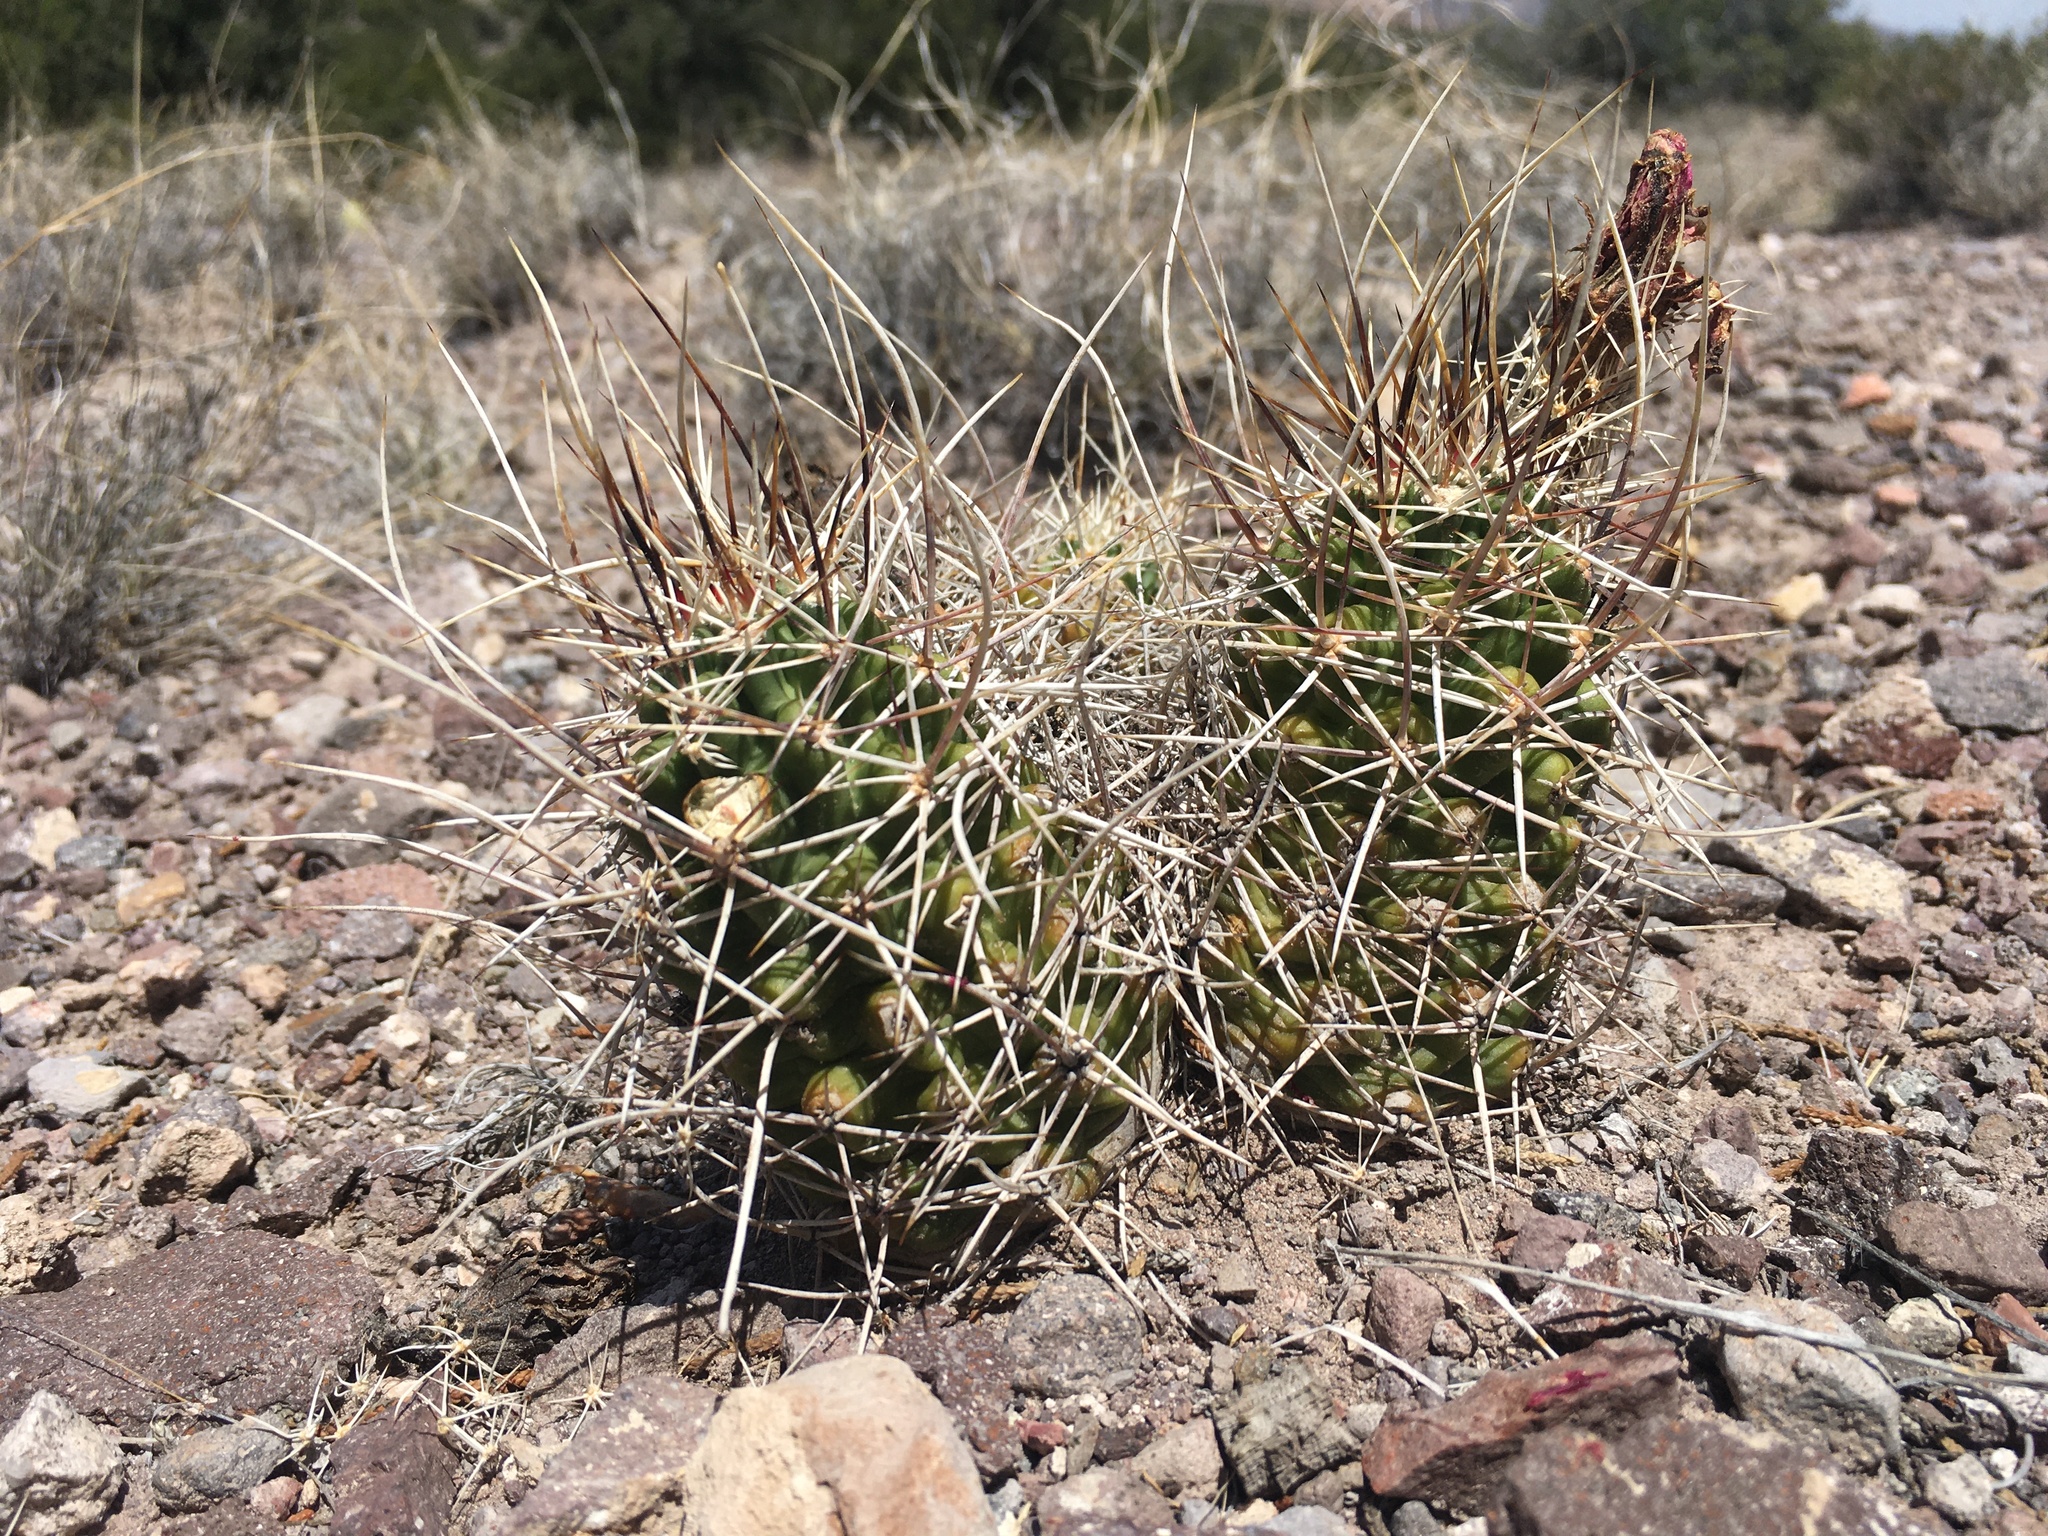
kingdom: Plantae
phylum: Tracheophyta
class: Magnoliopsida
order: Caryophyllales
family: Cactaceae
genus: Echinocereus
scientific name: Echinocereus fendleri
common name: Fendler's hedgehog cactus
